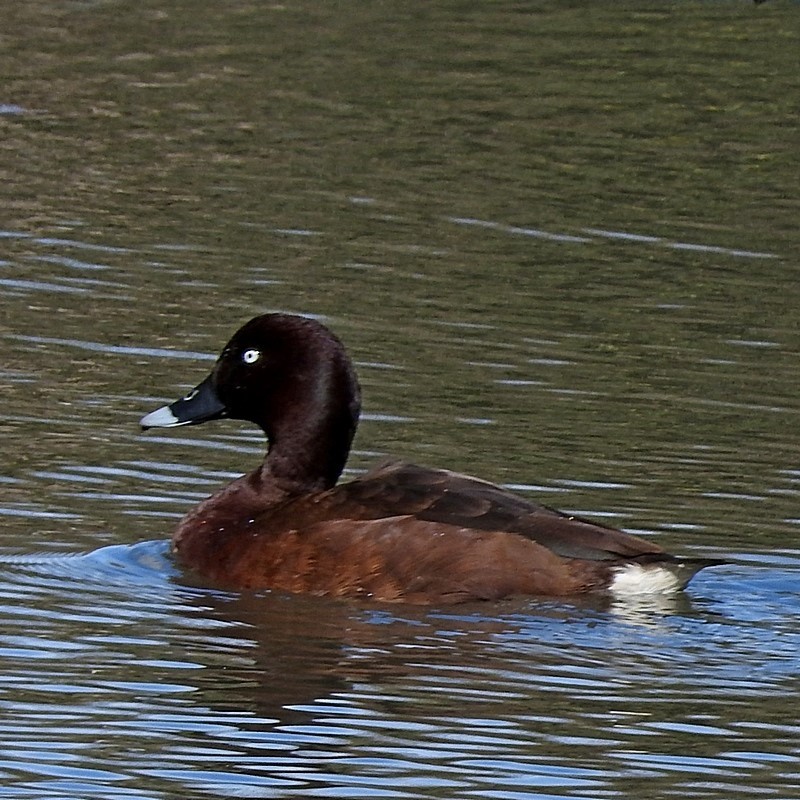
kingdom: Animalia
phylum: Chordata
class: Aves
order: Anseriformes
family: Anatidae
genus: Aythya
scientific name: Aythya australis
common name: Hardhead
